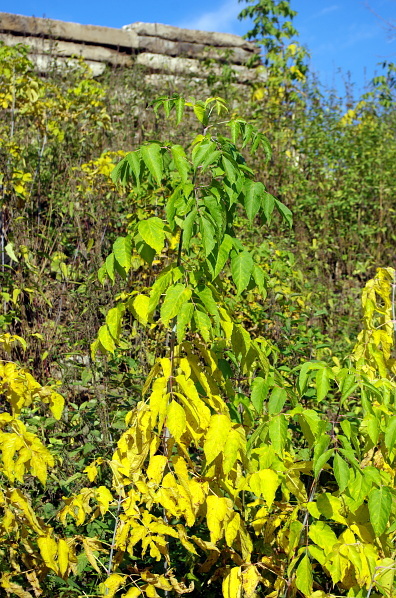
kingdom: Plantae
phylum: Tracheophyta
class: Magnoliopsida
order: Sapindales
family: Sapindaceae
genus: Acer
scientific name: Acer negundo
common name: Ashleaf maple
